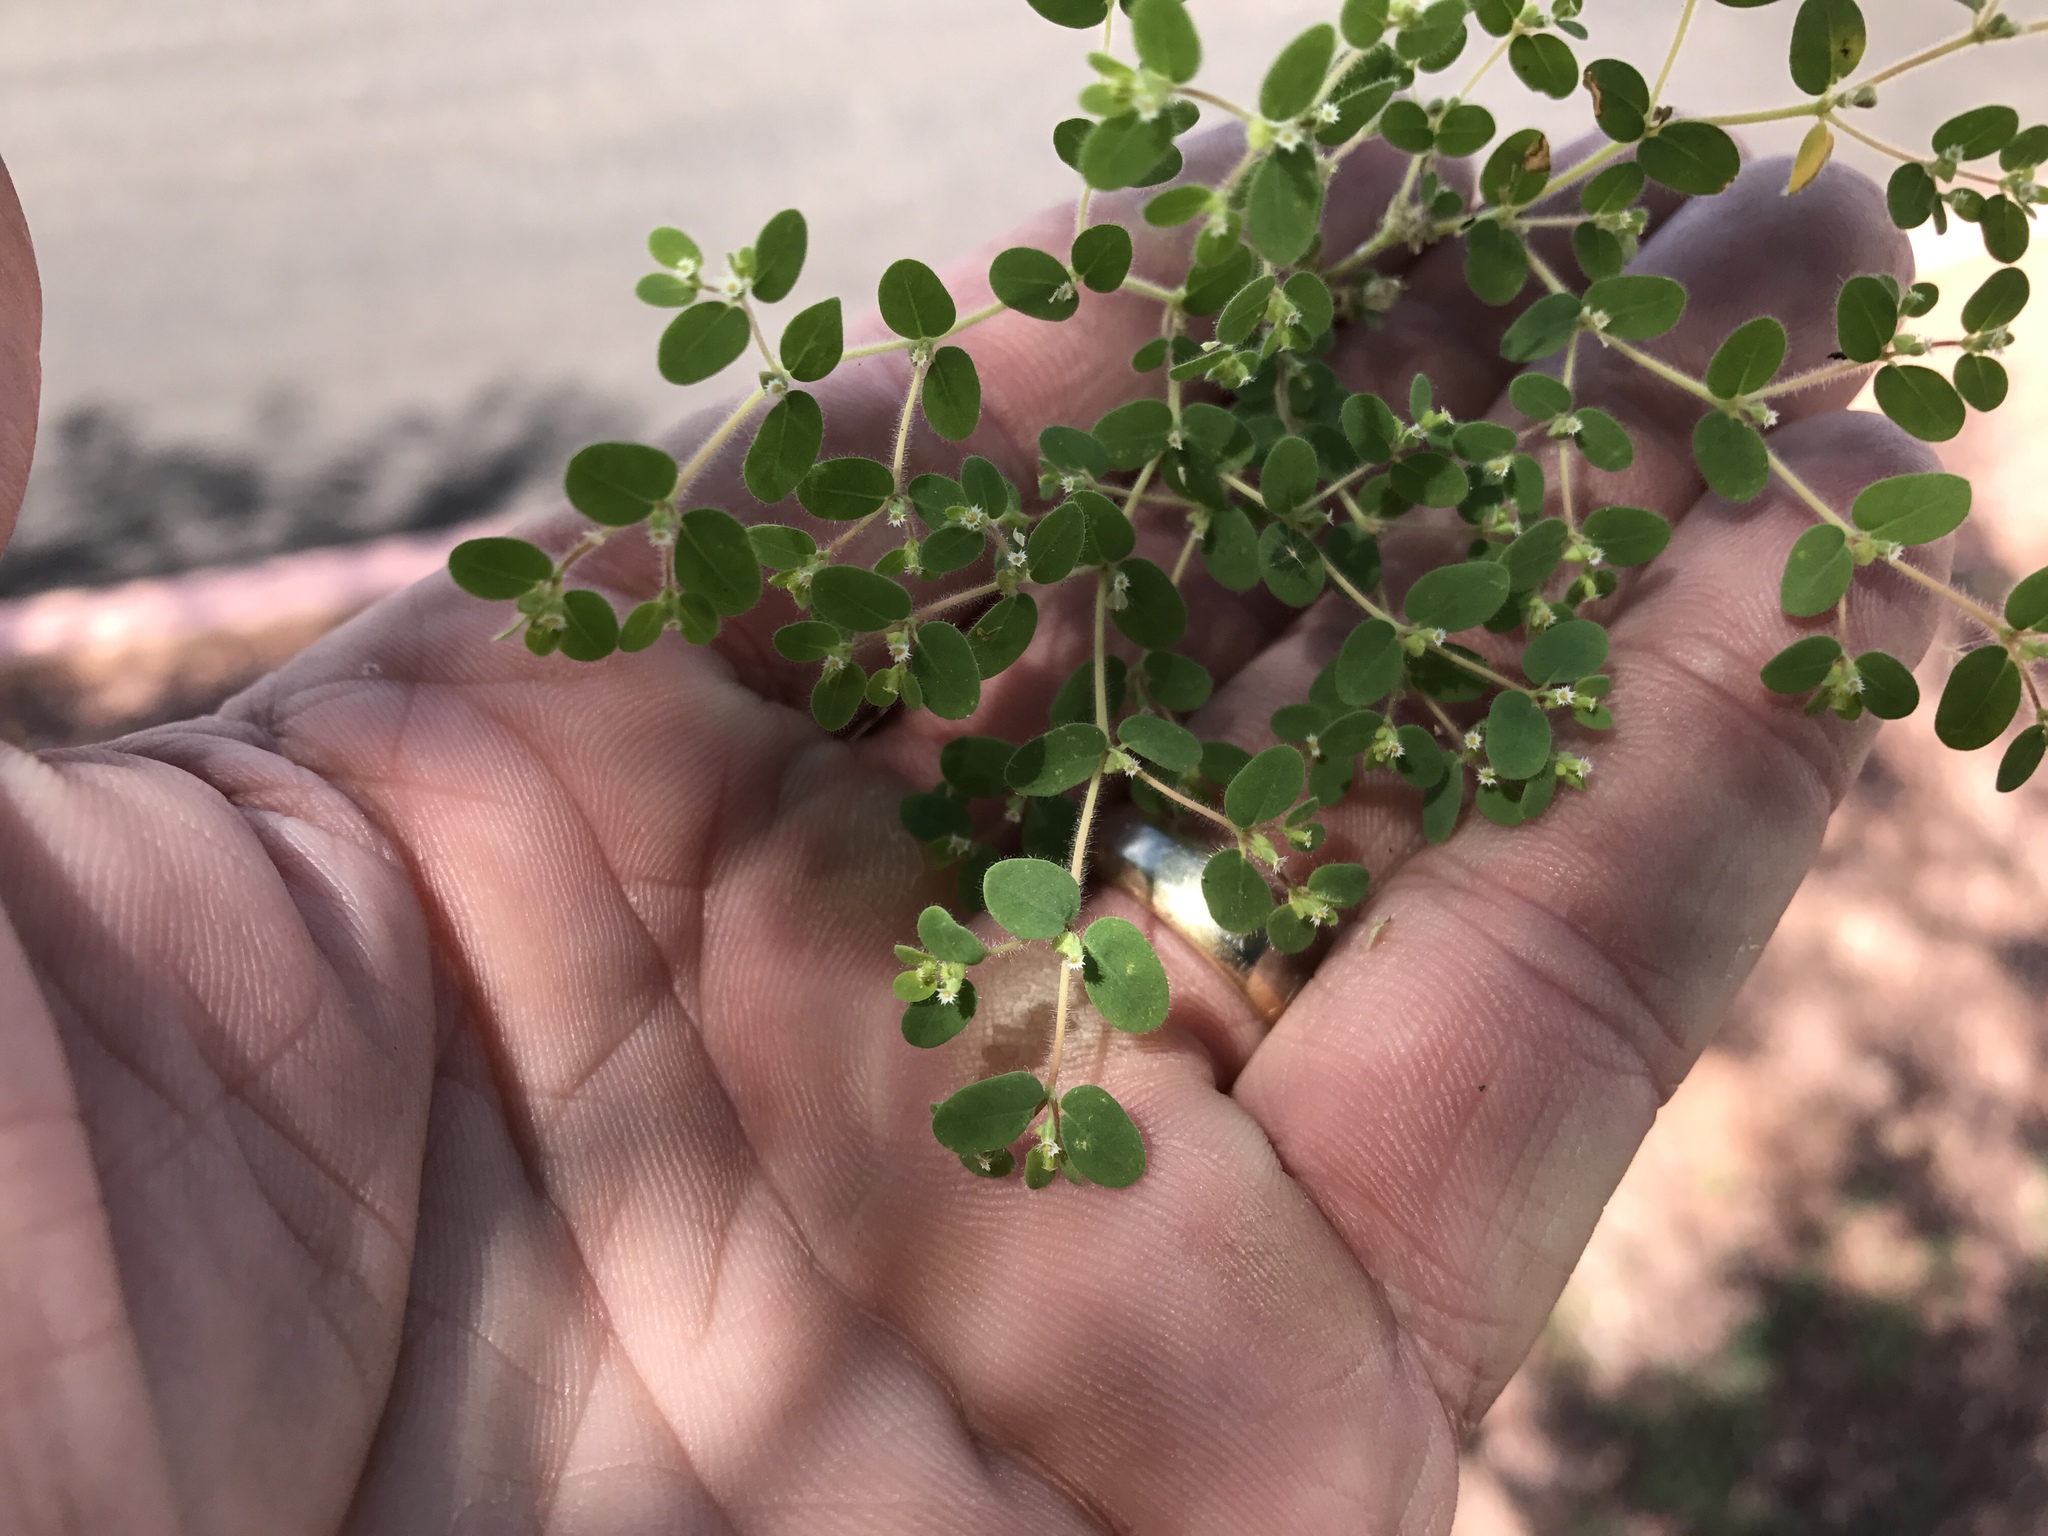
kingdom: Plantae
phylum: Tracheophyta
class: Magnoliopsida
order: Malpighiales
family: Euphorbiaceae
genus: Euphorbia
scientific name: Euphorbia setiloba
